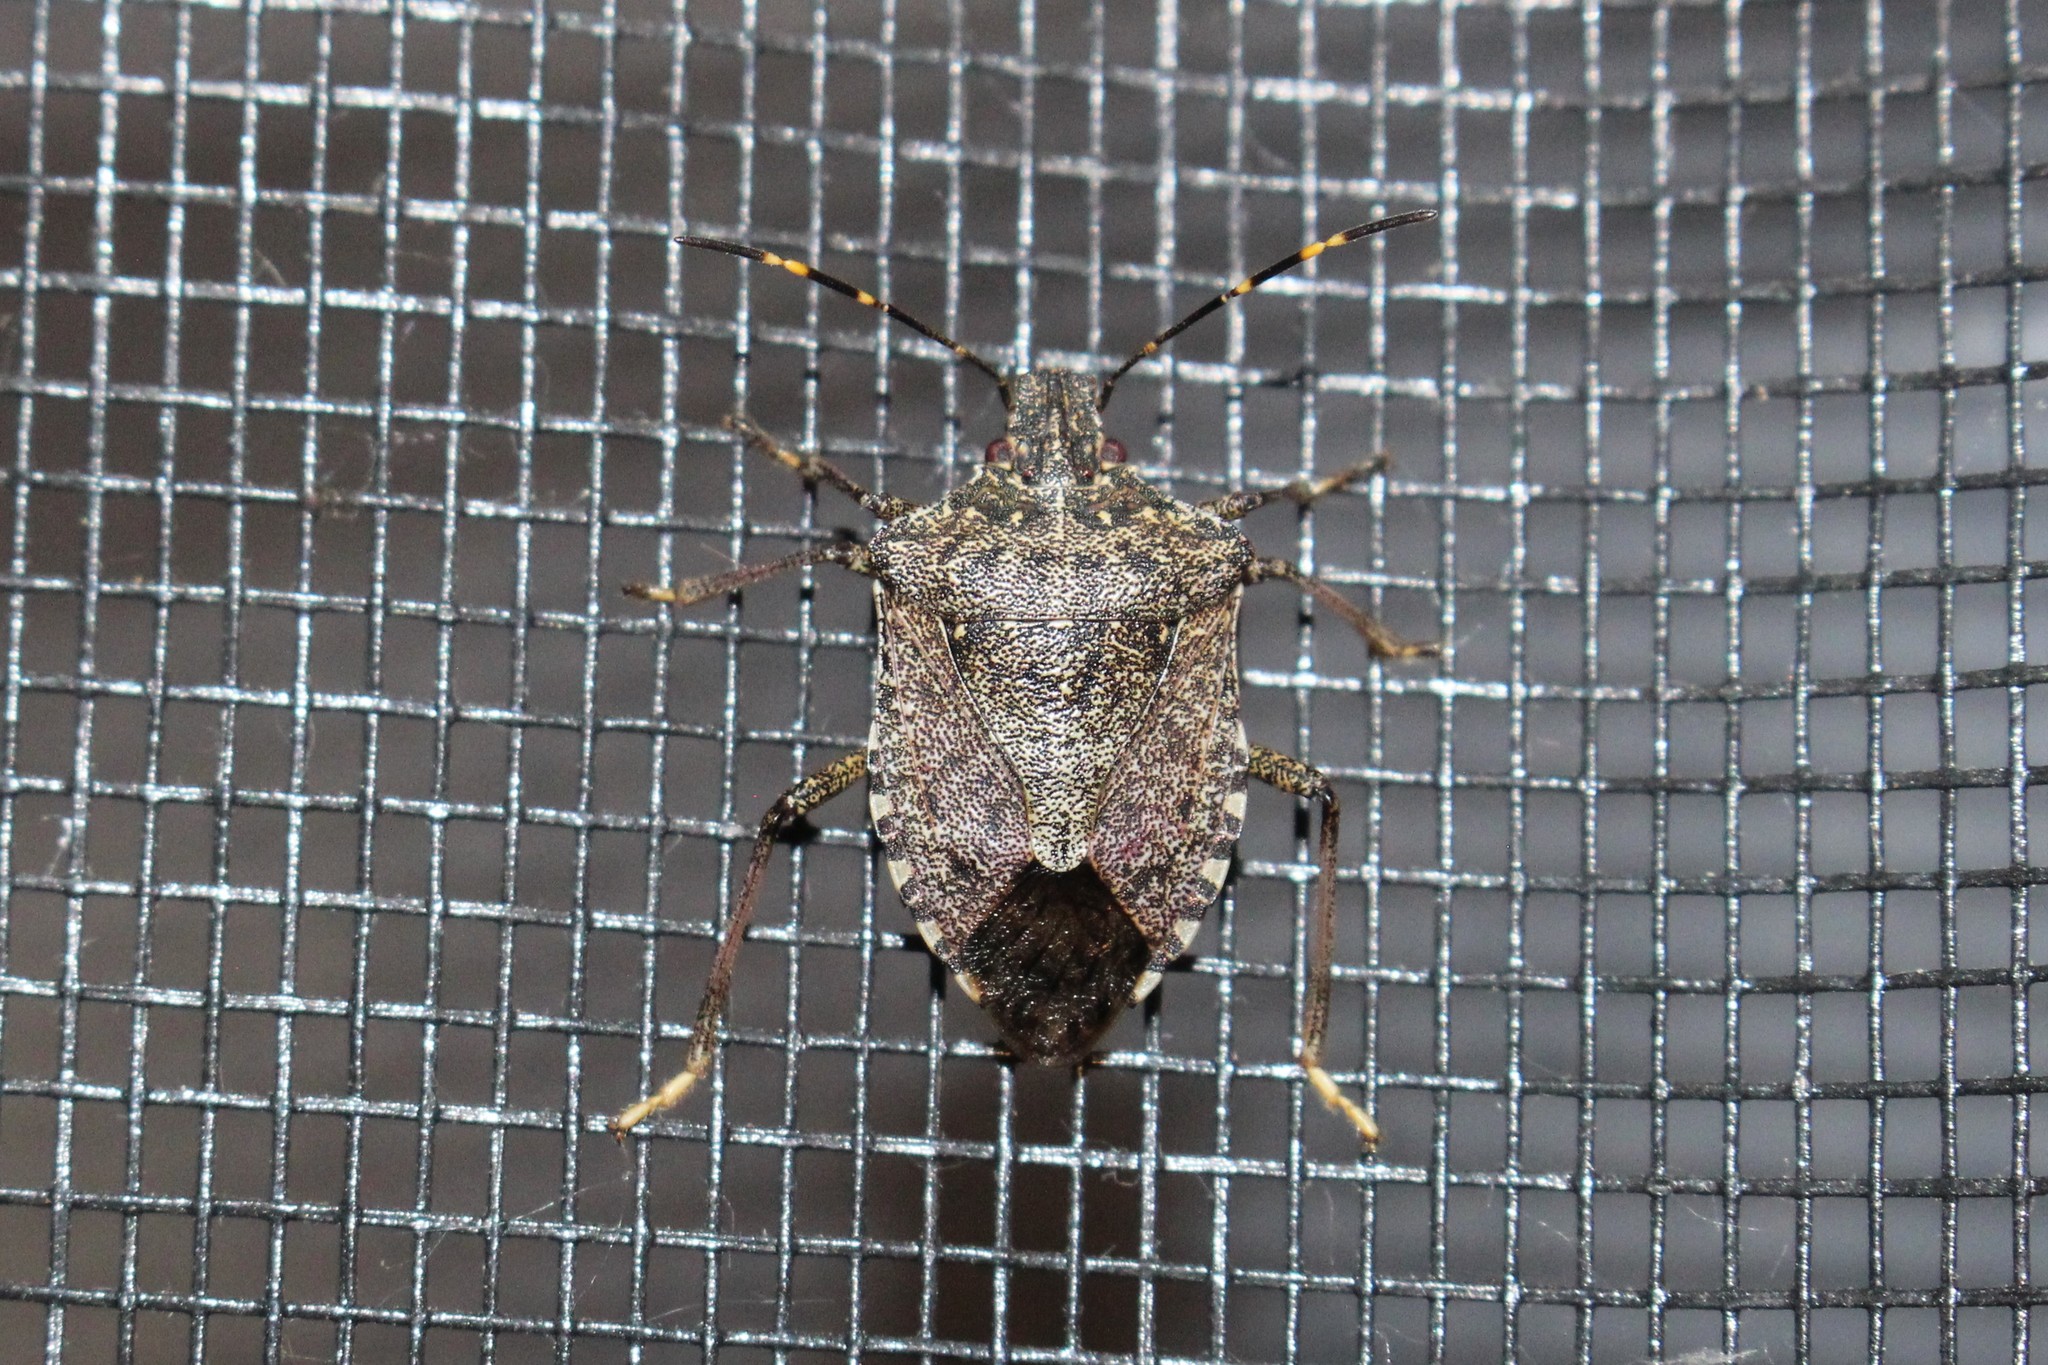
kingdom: Animalia
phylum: Arthropoda
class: Insecta
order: Hemiptera
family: Pentatomidae
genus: Halyomorpha
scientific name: Halyomorpha halys
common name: Brown marmorated stink bug
